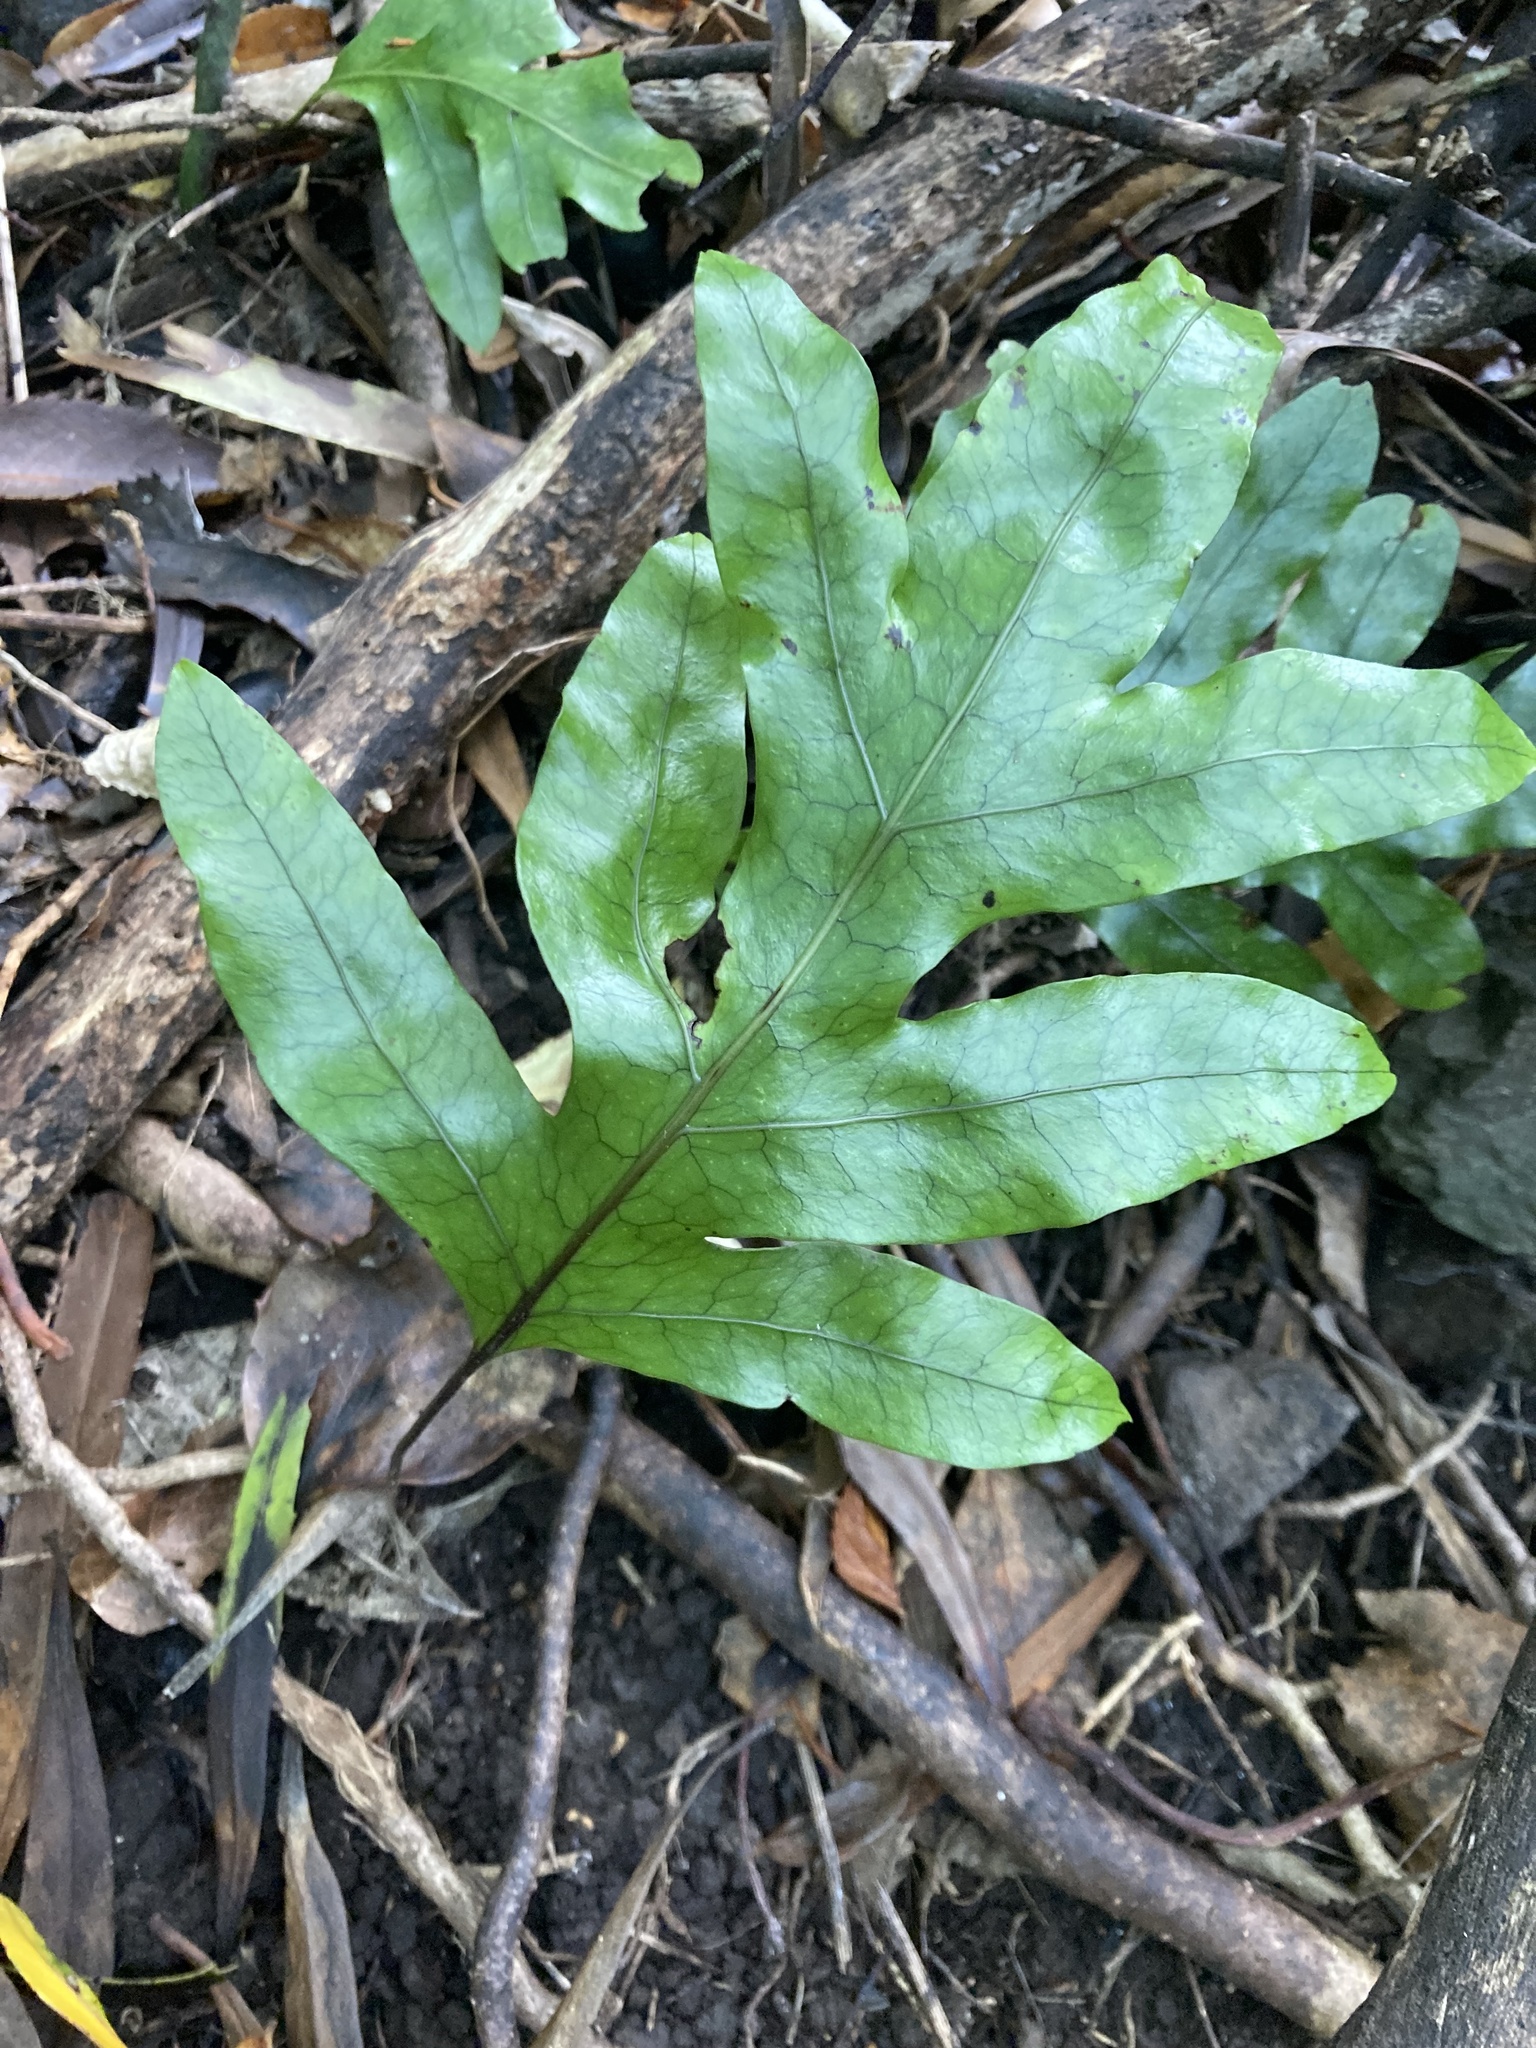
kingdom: Plantae
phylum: Tracheophyta
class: Polypodiopsida
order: Polypodiales
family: Polypodiaceae
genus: Lecanopteris
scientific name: Lecanopteris pustulata
